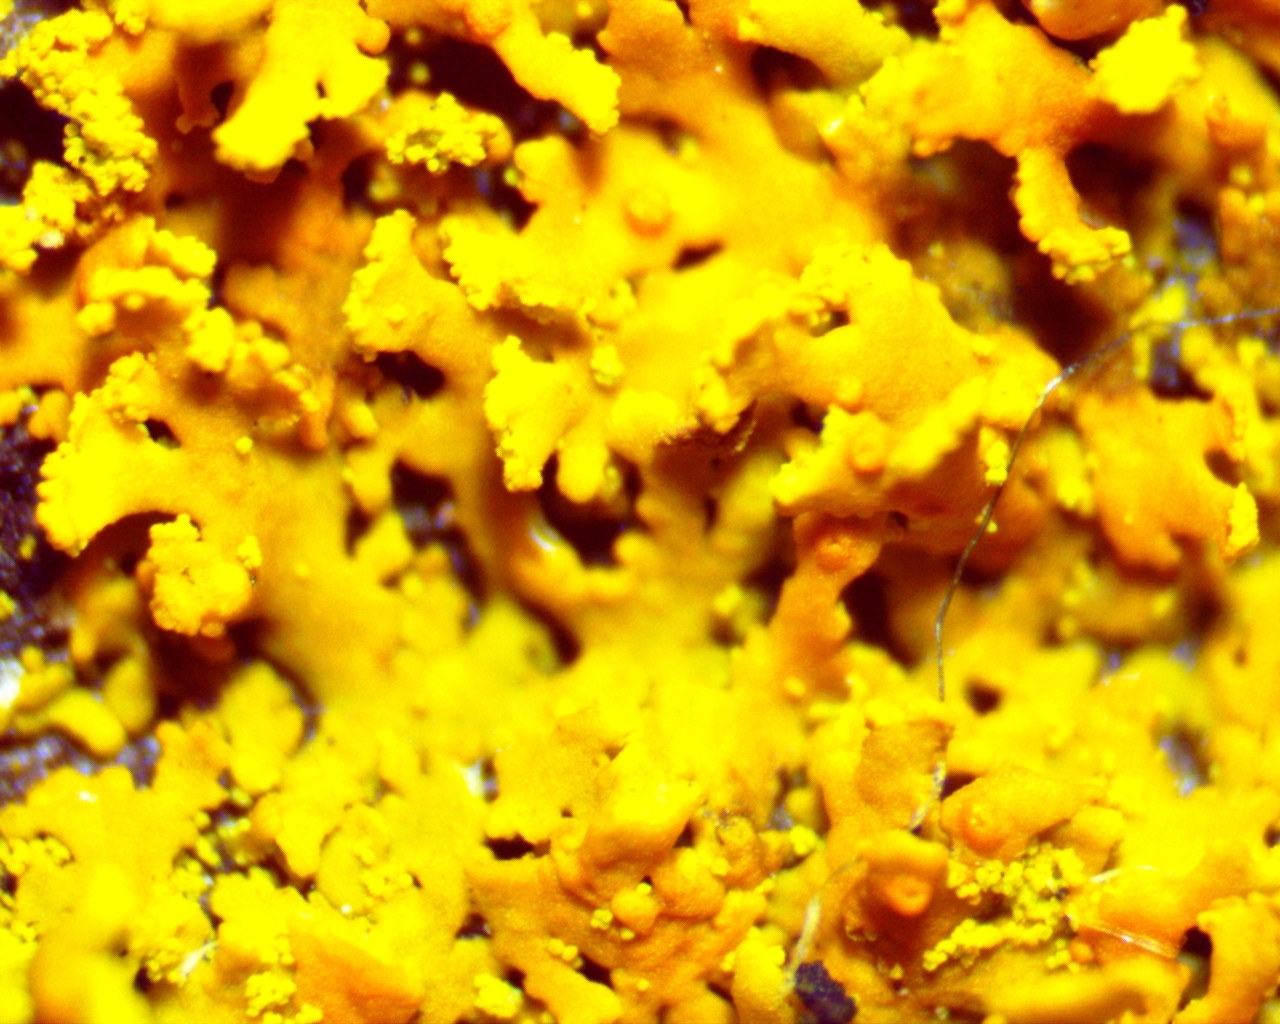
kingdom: Fungi
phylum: Ascomycota
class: Lecanoromycetes
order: Teloschistales
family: Teloschistaceae
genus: Gallowayella
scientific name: Gallowayella weberi
